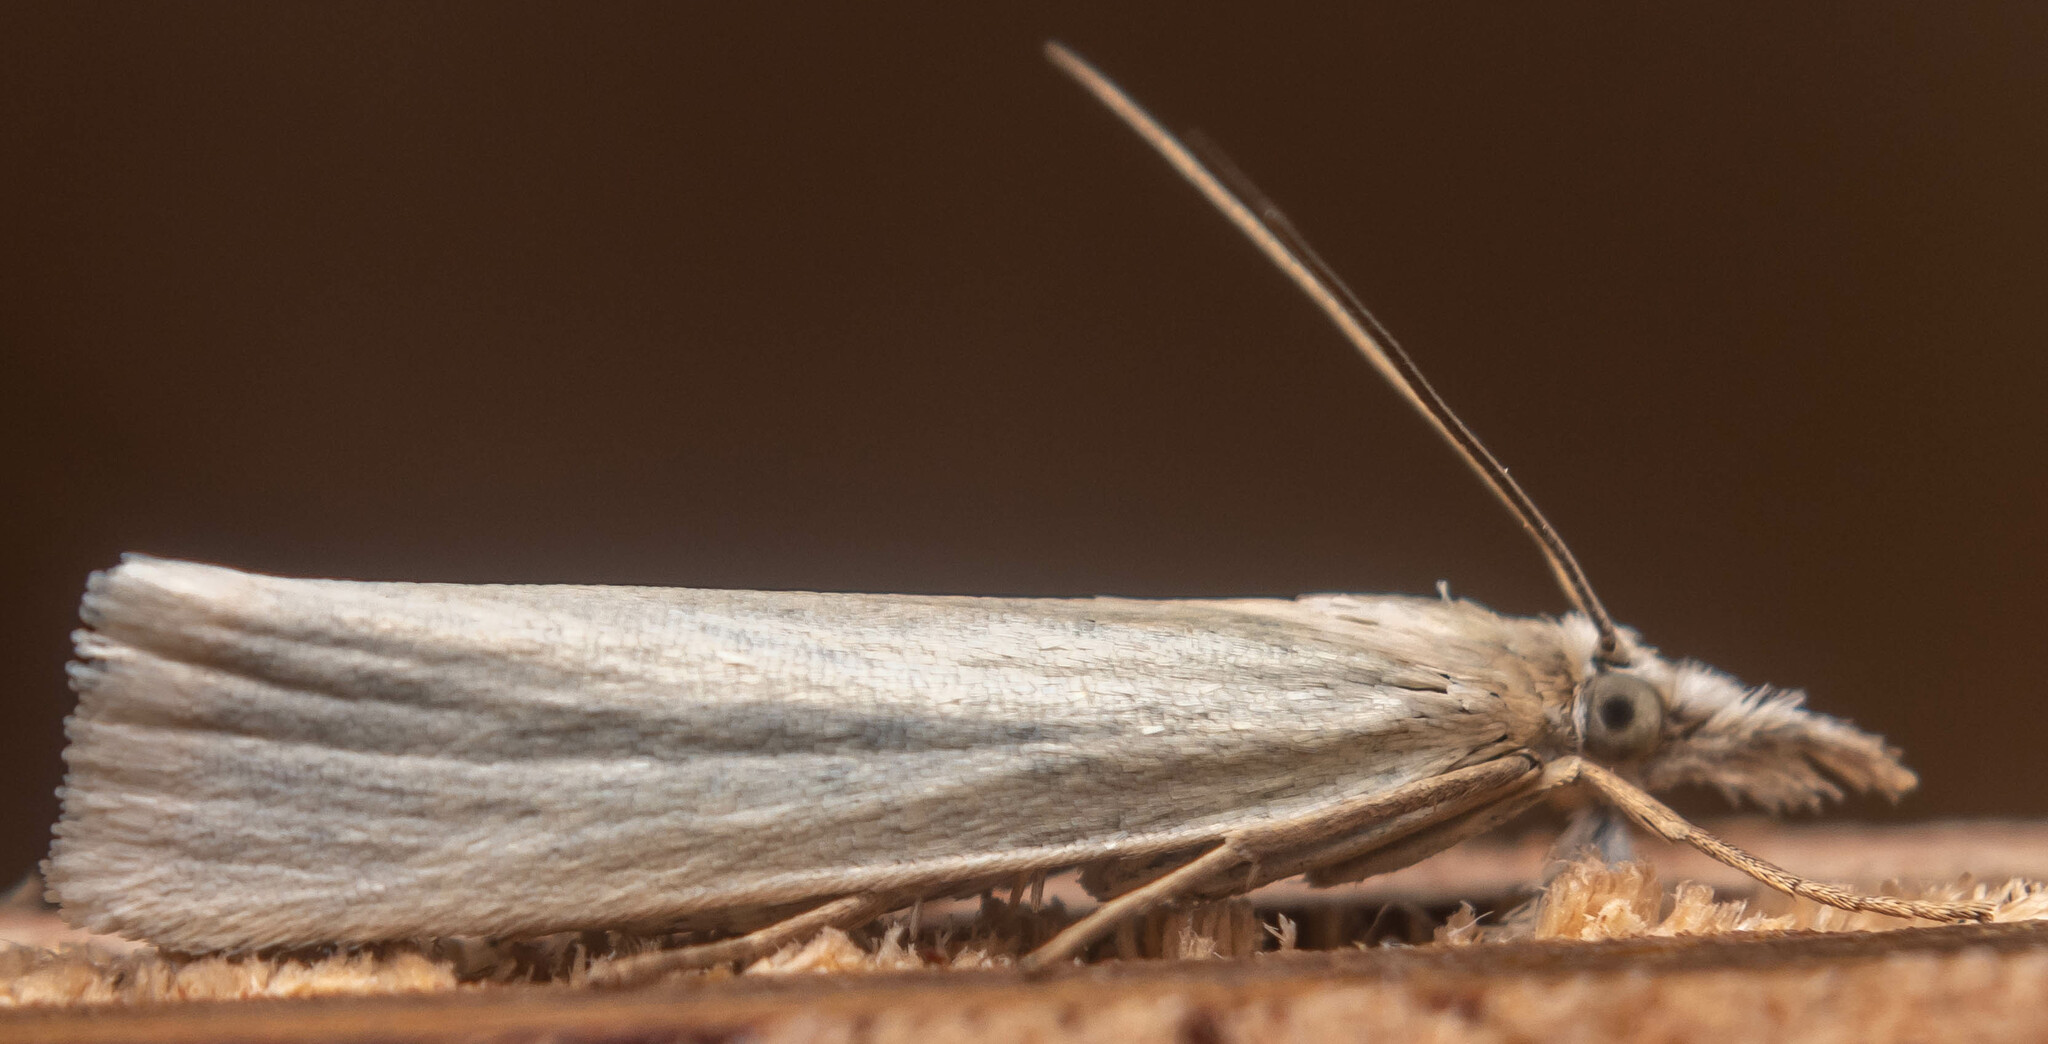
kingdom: Animalia
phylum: Arthropoda
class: Insecta
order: Lepidoptera
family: Crambidae
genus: Crambus
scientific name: Crambus perlellus
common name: Yellow satin veneer
